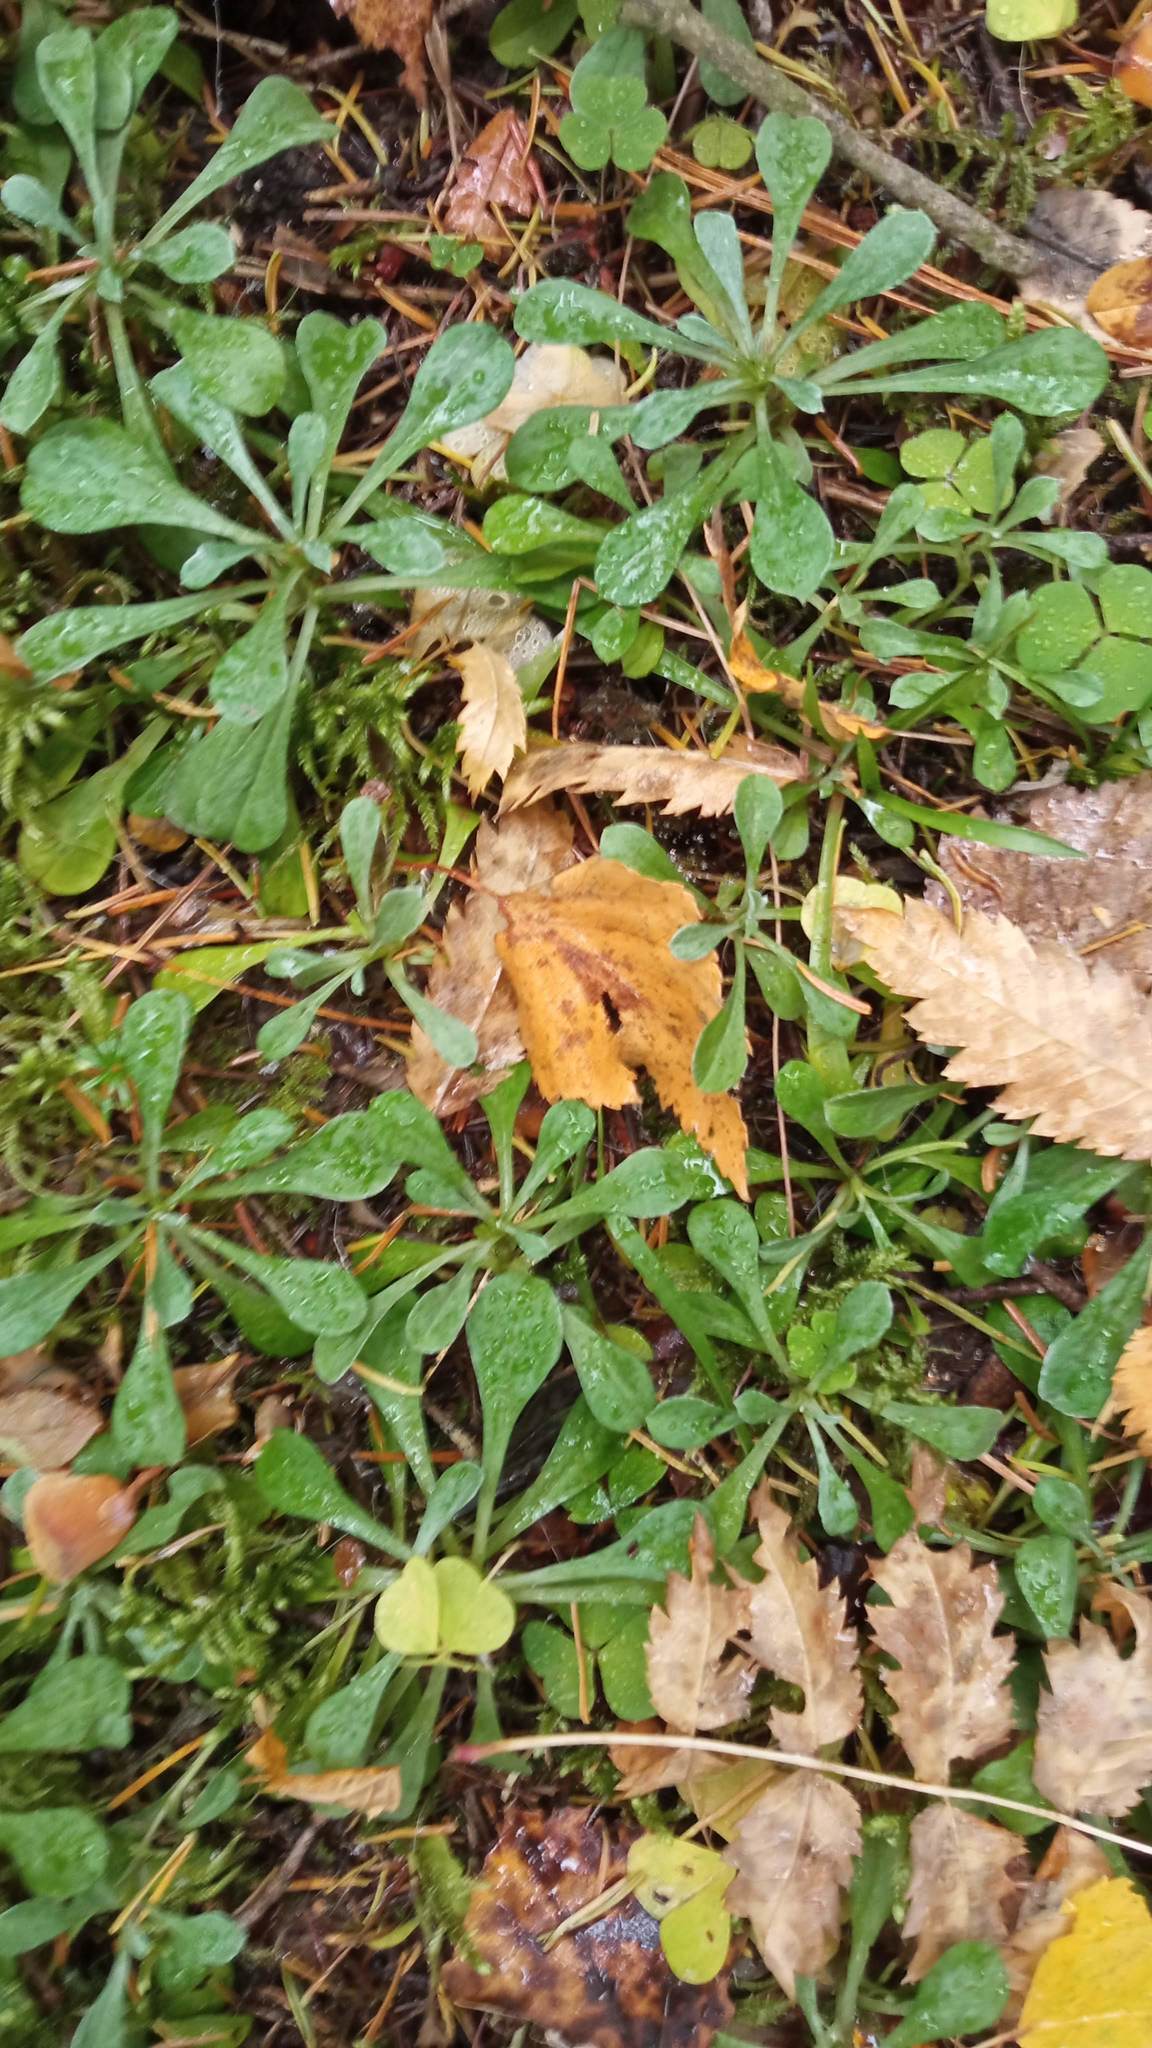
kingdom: Plantae
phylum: Tracheophyta
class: Magnoliopsida
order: Asterales
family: Asteraceae
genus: Antennaria
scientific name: Antennaria dioica
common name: Mountain everlasting
